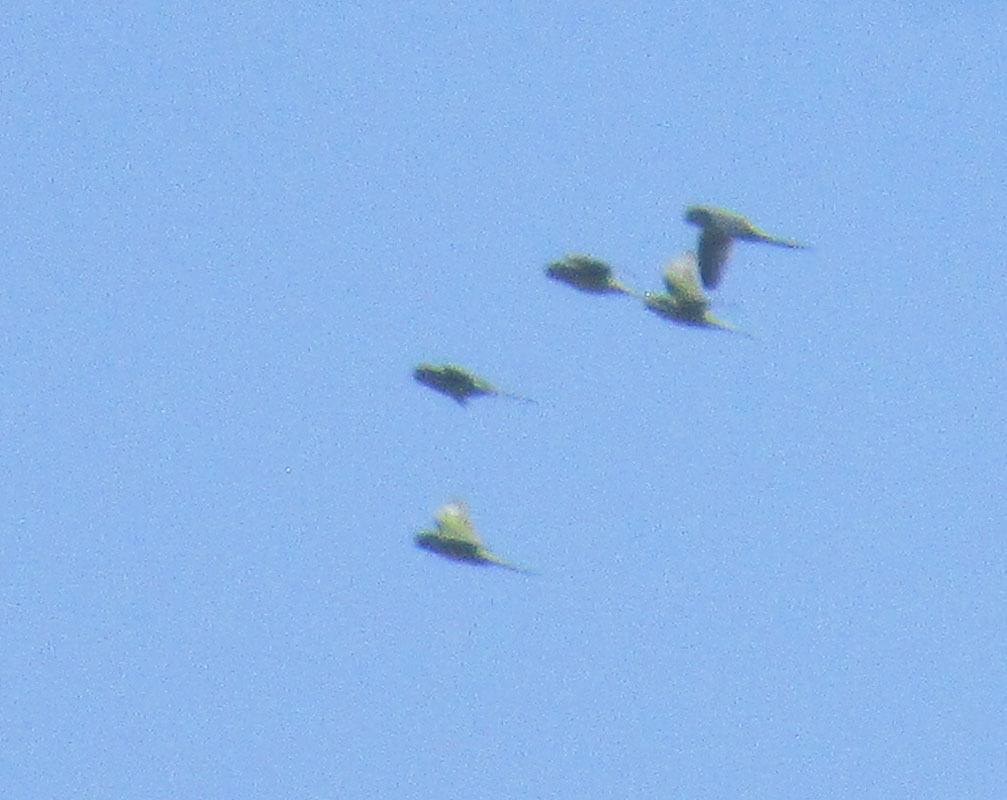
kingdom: Animalia
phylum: Chordata
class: Aves
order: Psittaciformes
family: Psittacidae
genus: Myiopsitta
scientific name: Myiopsitta monachus
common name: Monk parakeet
